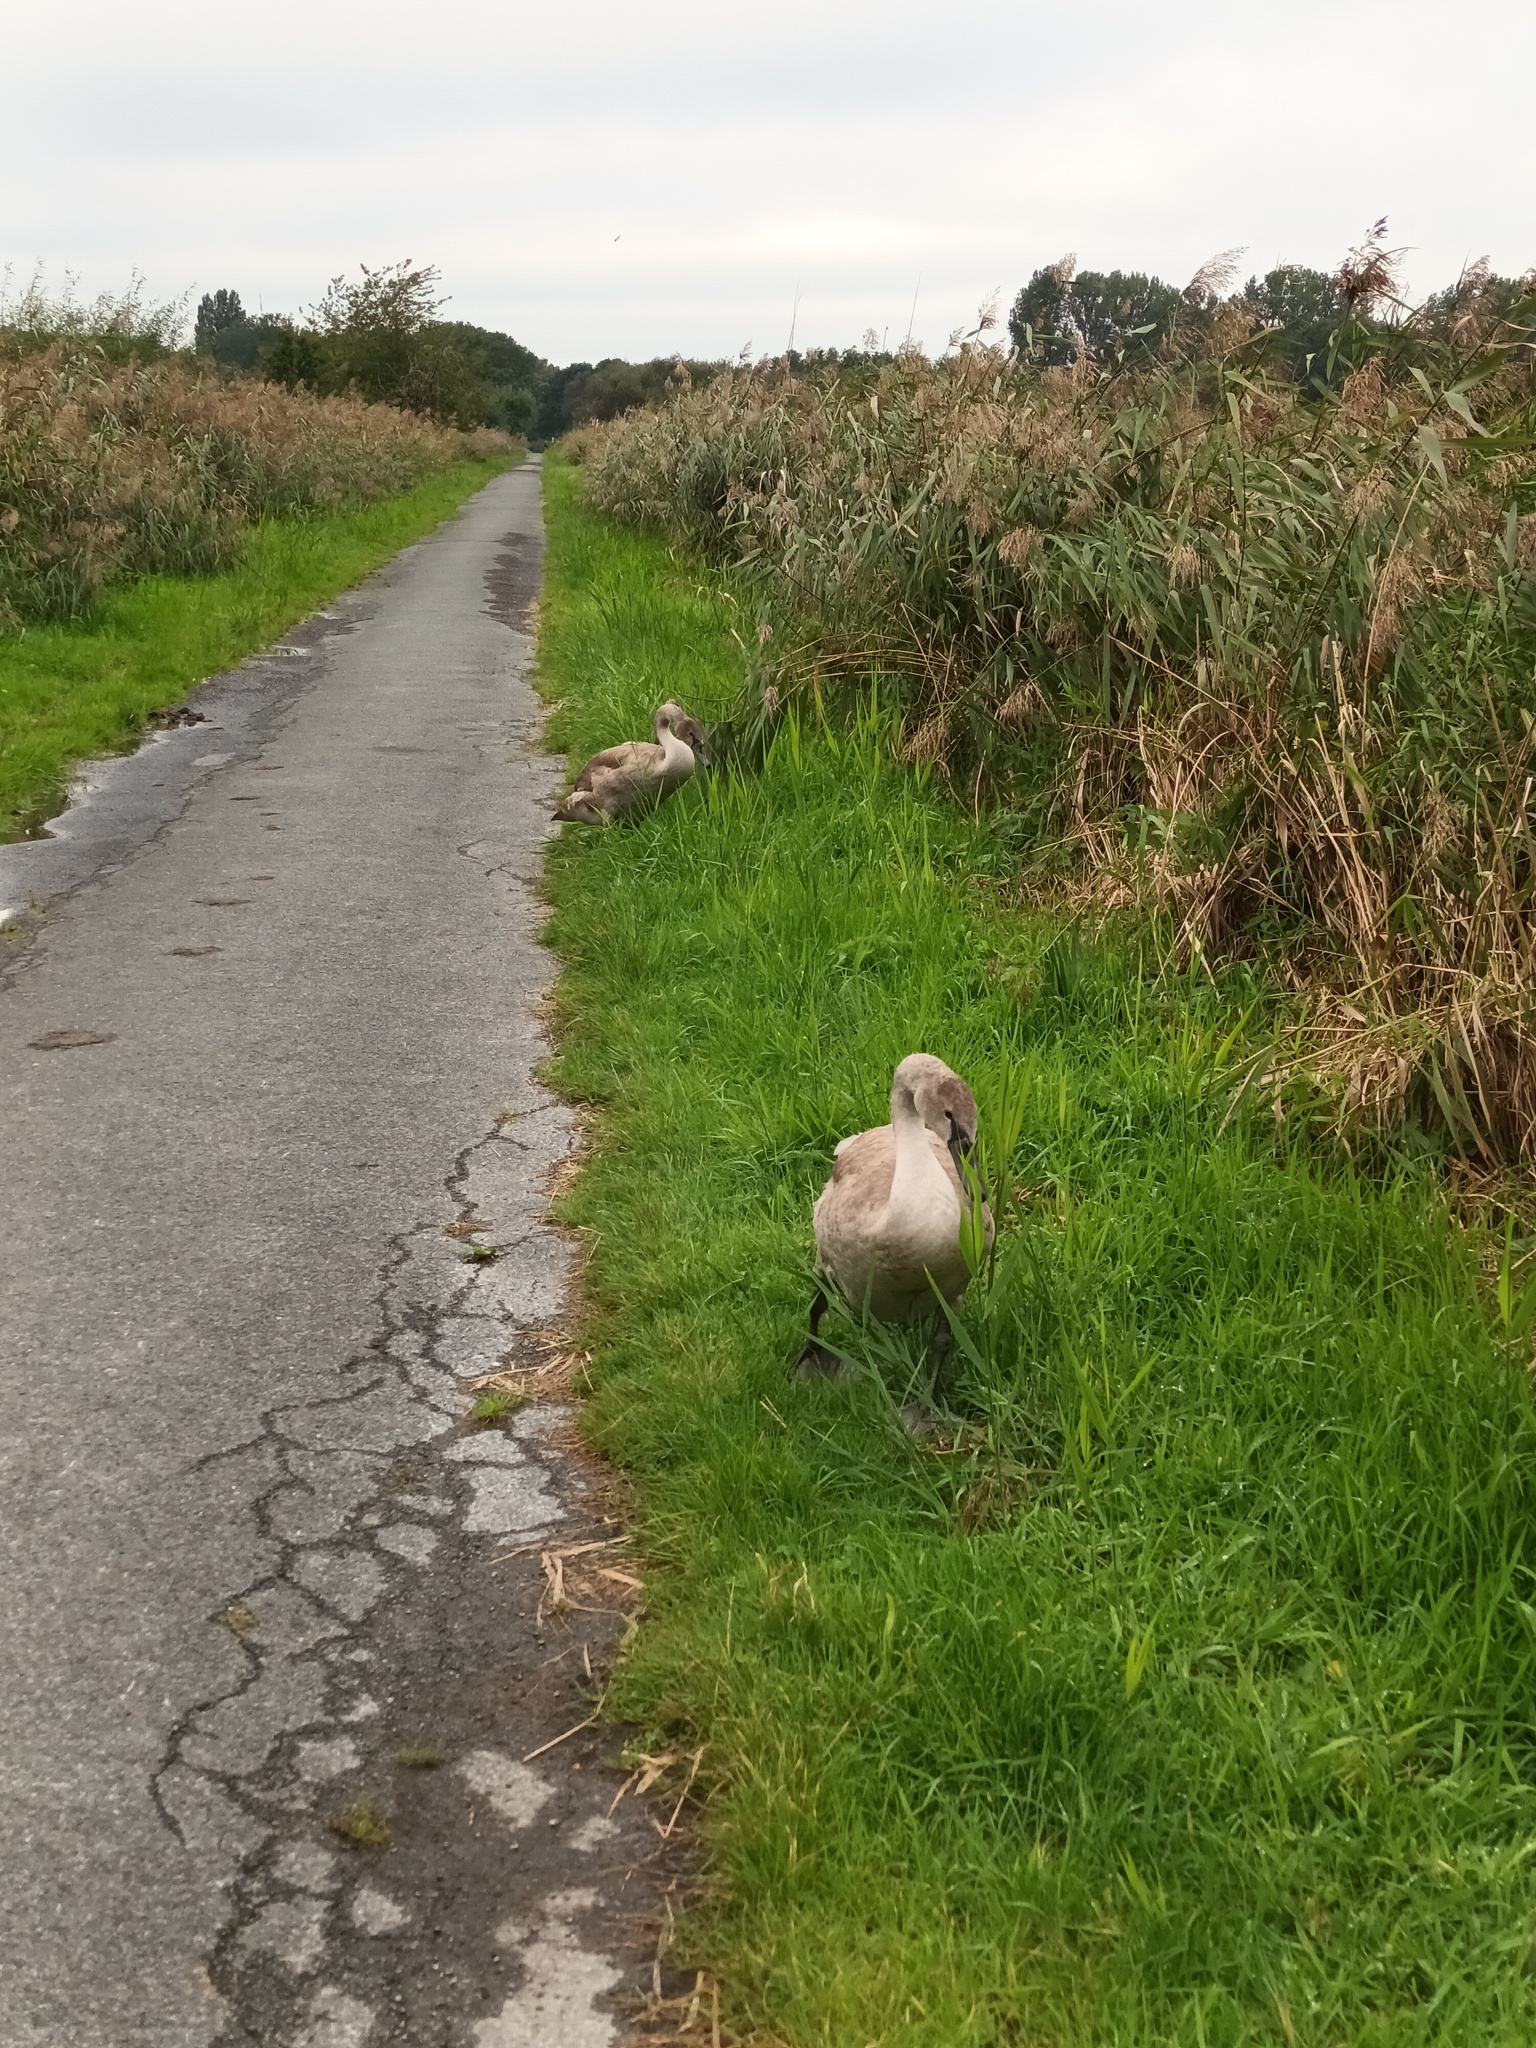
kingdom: Animalia
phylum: Chordata
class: Aves
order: Anseriformes
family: Anatidae
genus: Cygnus
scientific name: Cygnus olor
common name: Mute swan
